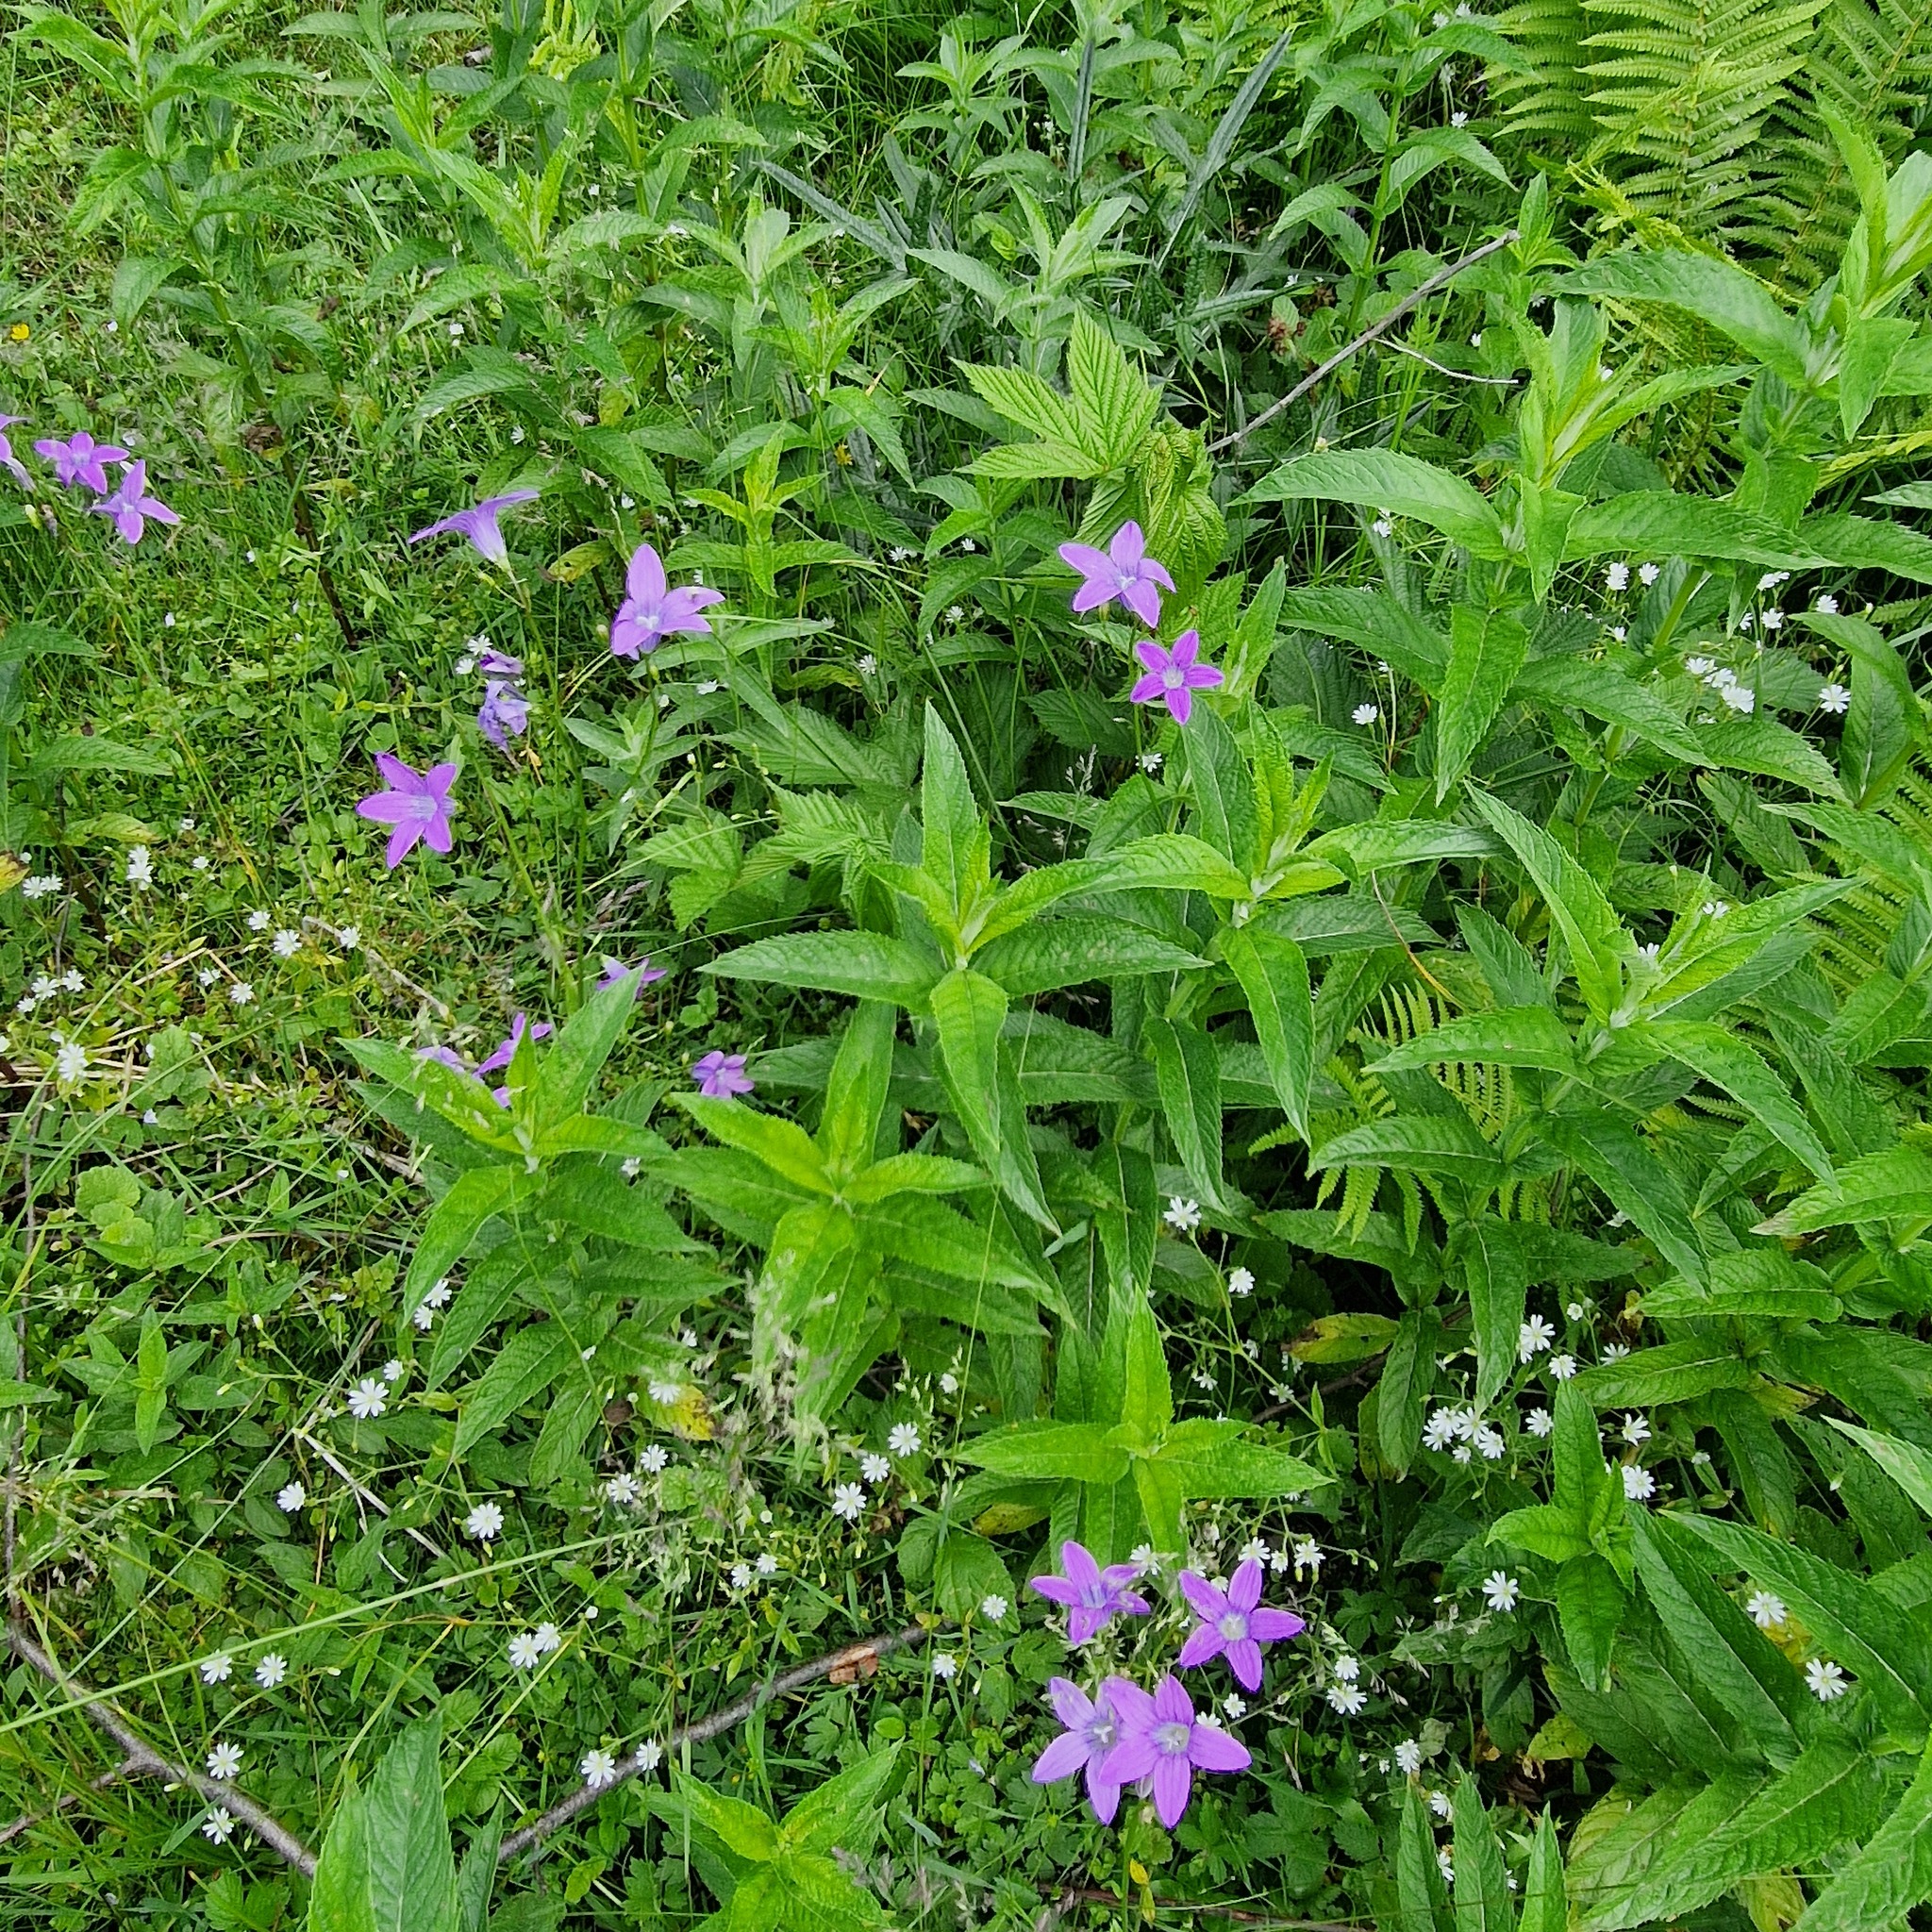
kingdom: Plantae
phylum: Tracheophyta
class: Magnoliopsida
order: Asterales
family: Campanulaceae
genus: Campanula
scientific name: Campanula patula
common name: Spreading bellflower
